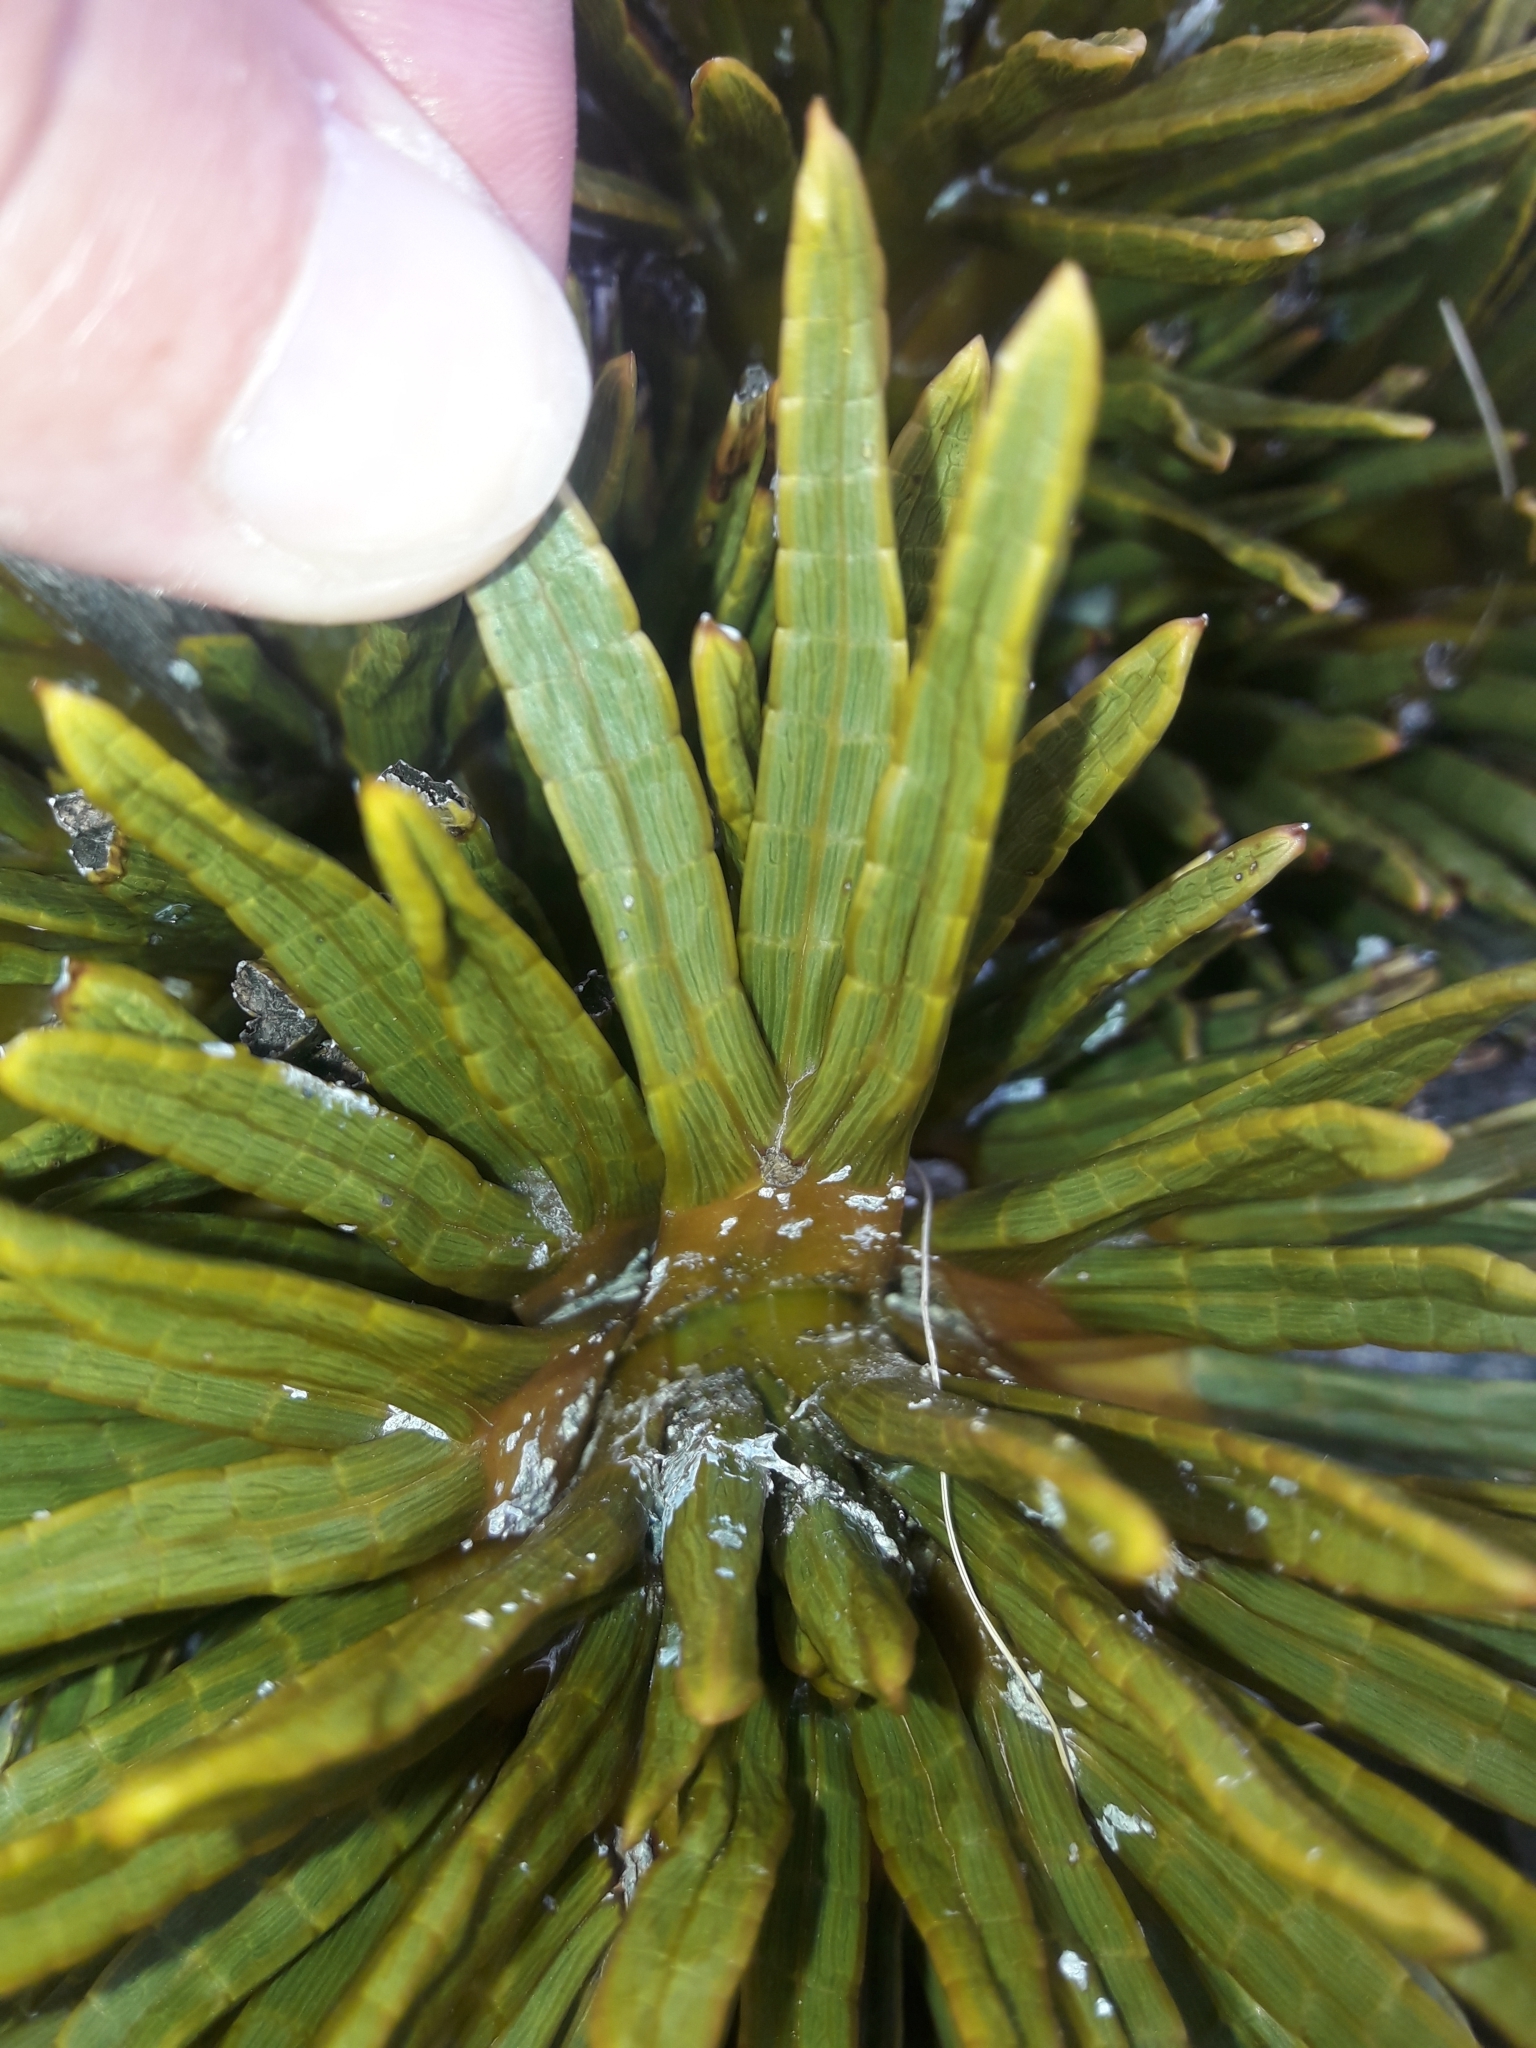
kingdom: Plantae
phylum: Tracheophyta
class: Magnoliopsida
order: Apiales
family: Apiaceae
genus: Aciphylla
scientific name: Aciphylla dobsonii
